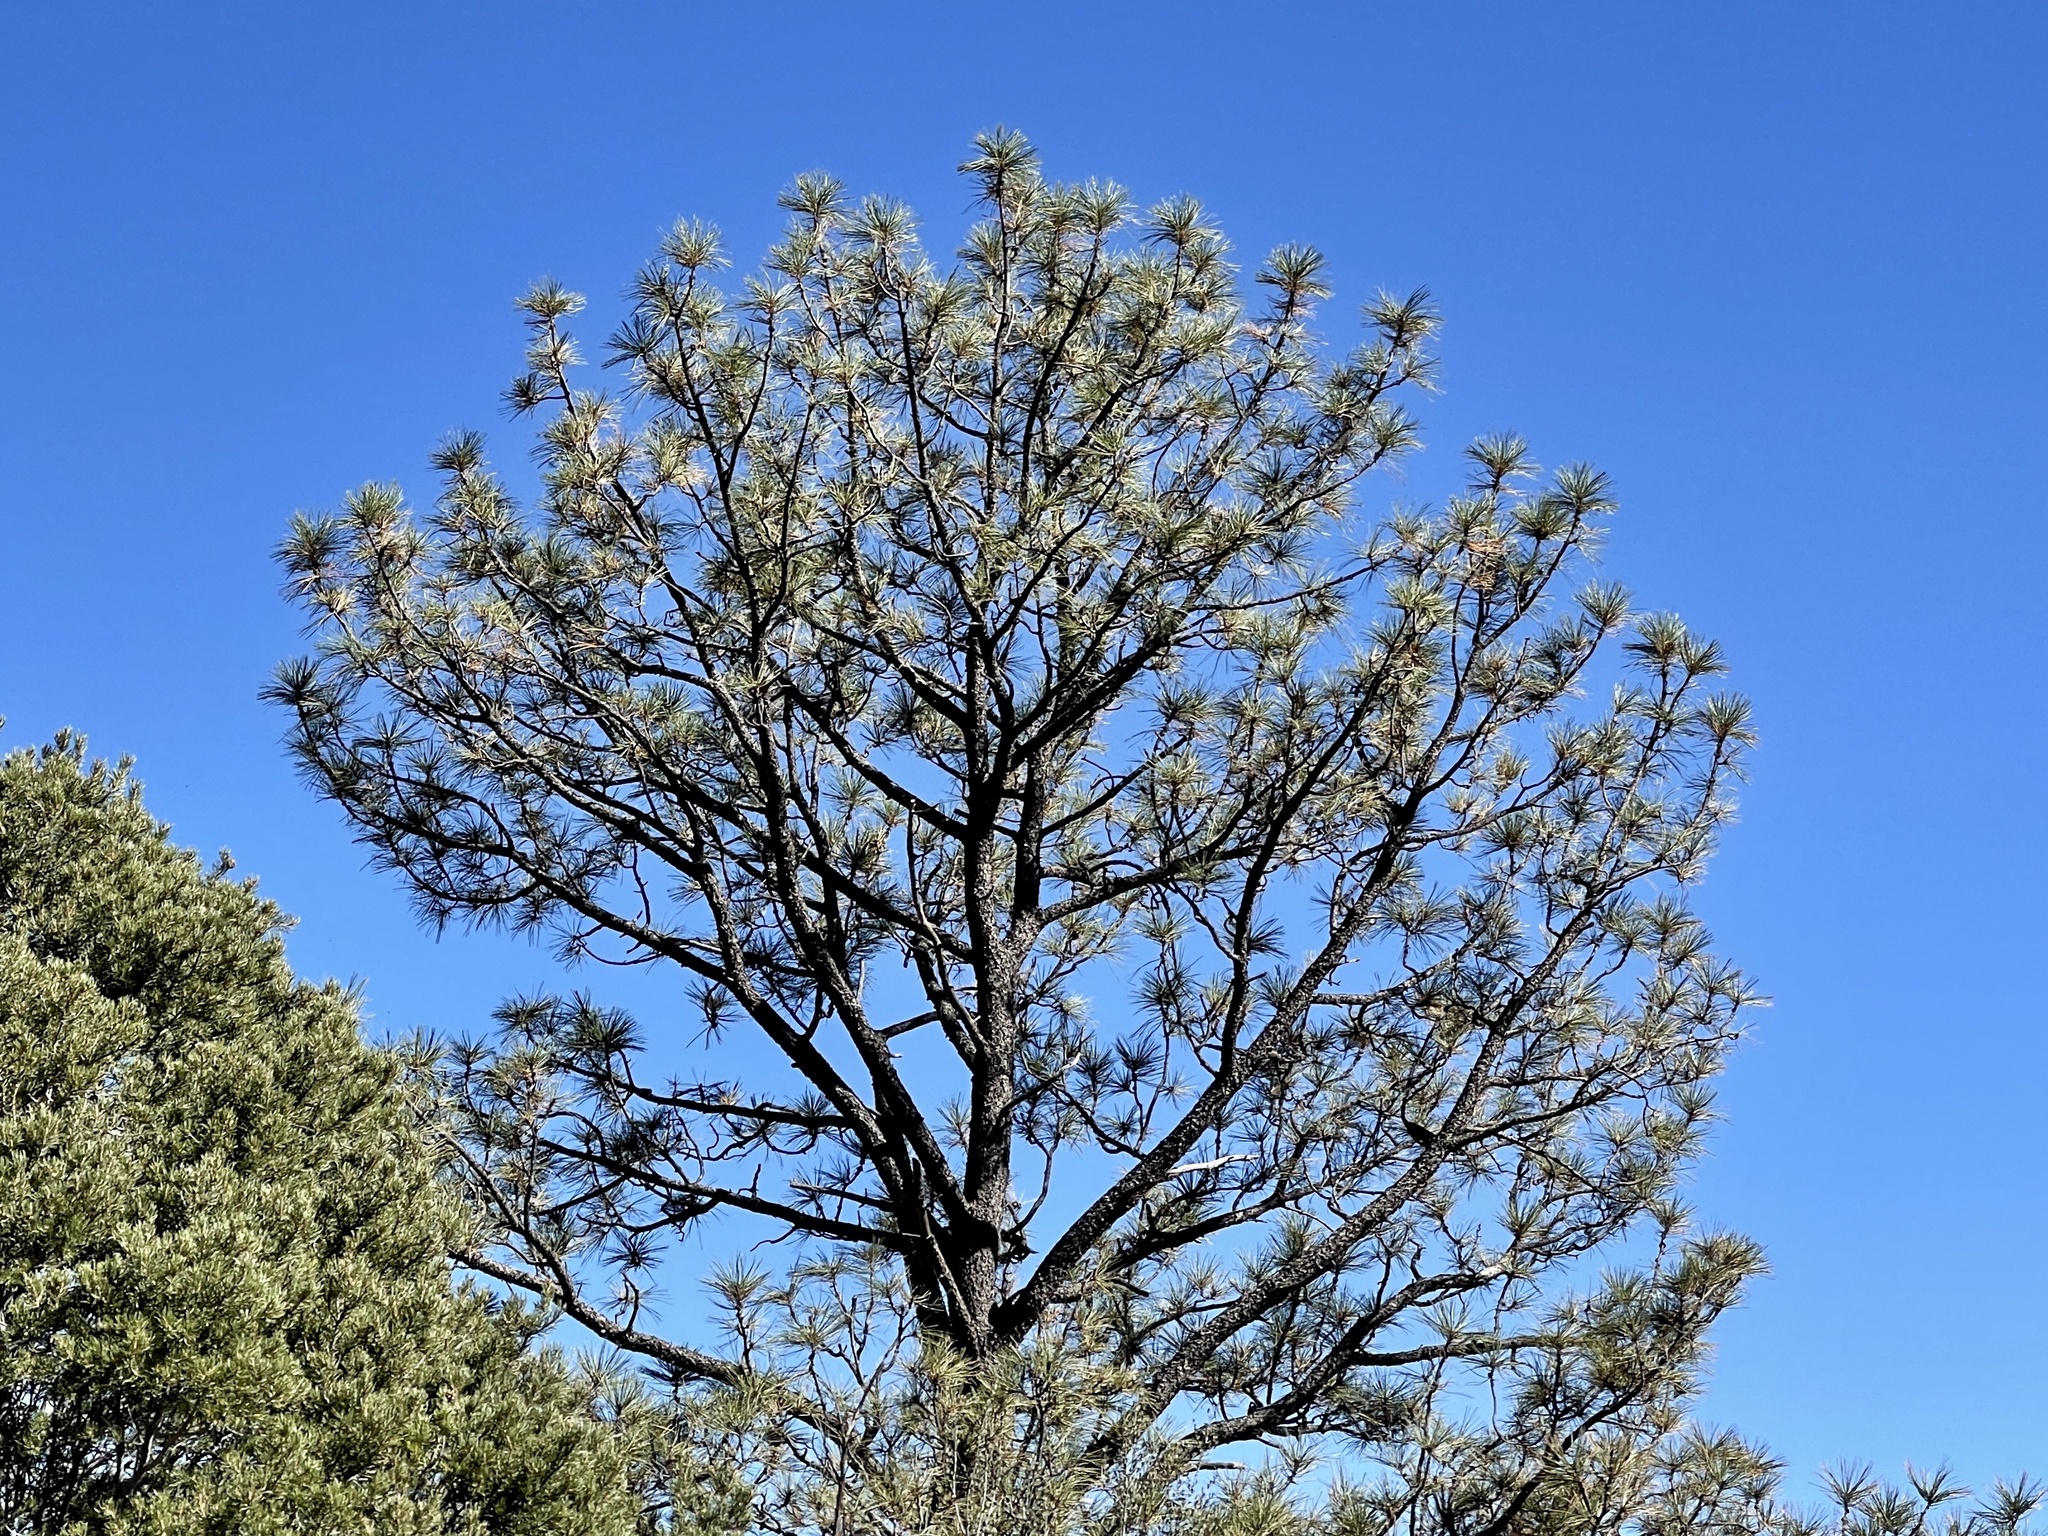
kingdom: Plantae
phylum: Tracheophyta
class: Pinopsida
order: Pinales
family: Pinaceae
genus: Pinus
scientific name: Pinus ponderosa
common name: Western yellow-pine
